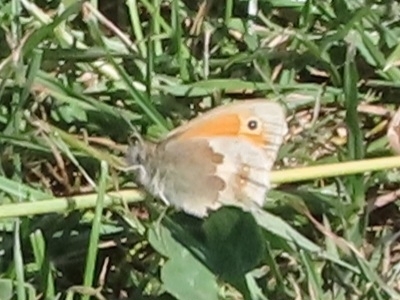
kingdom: Animalia
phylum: Arthropoda
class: Insecta
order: Lepidoptera
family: Nymphalidae
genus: Coenonympha
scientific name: Coenonympha pamphilus
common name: Small heath
